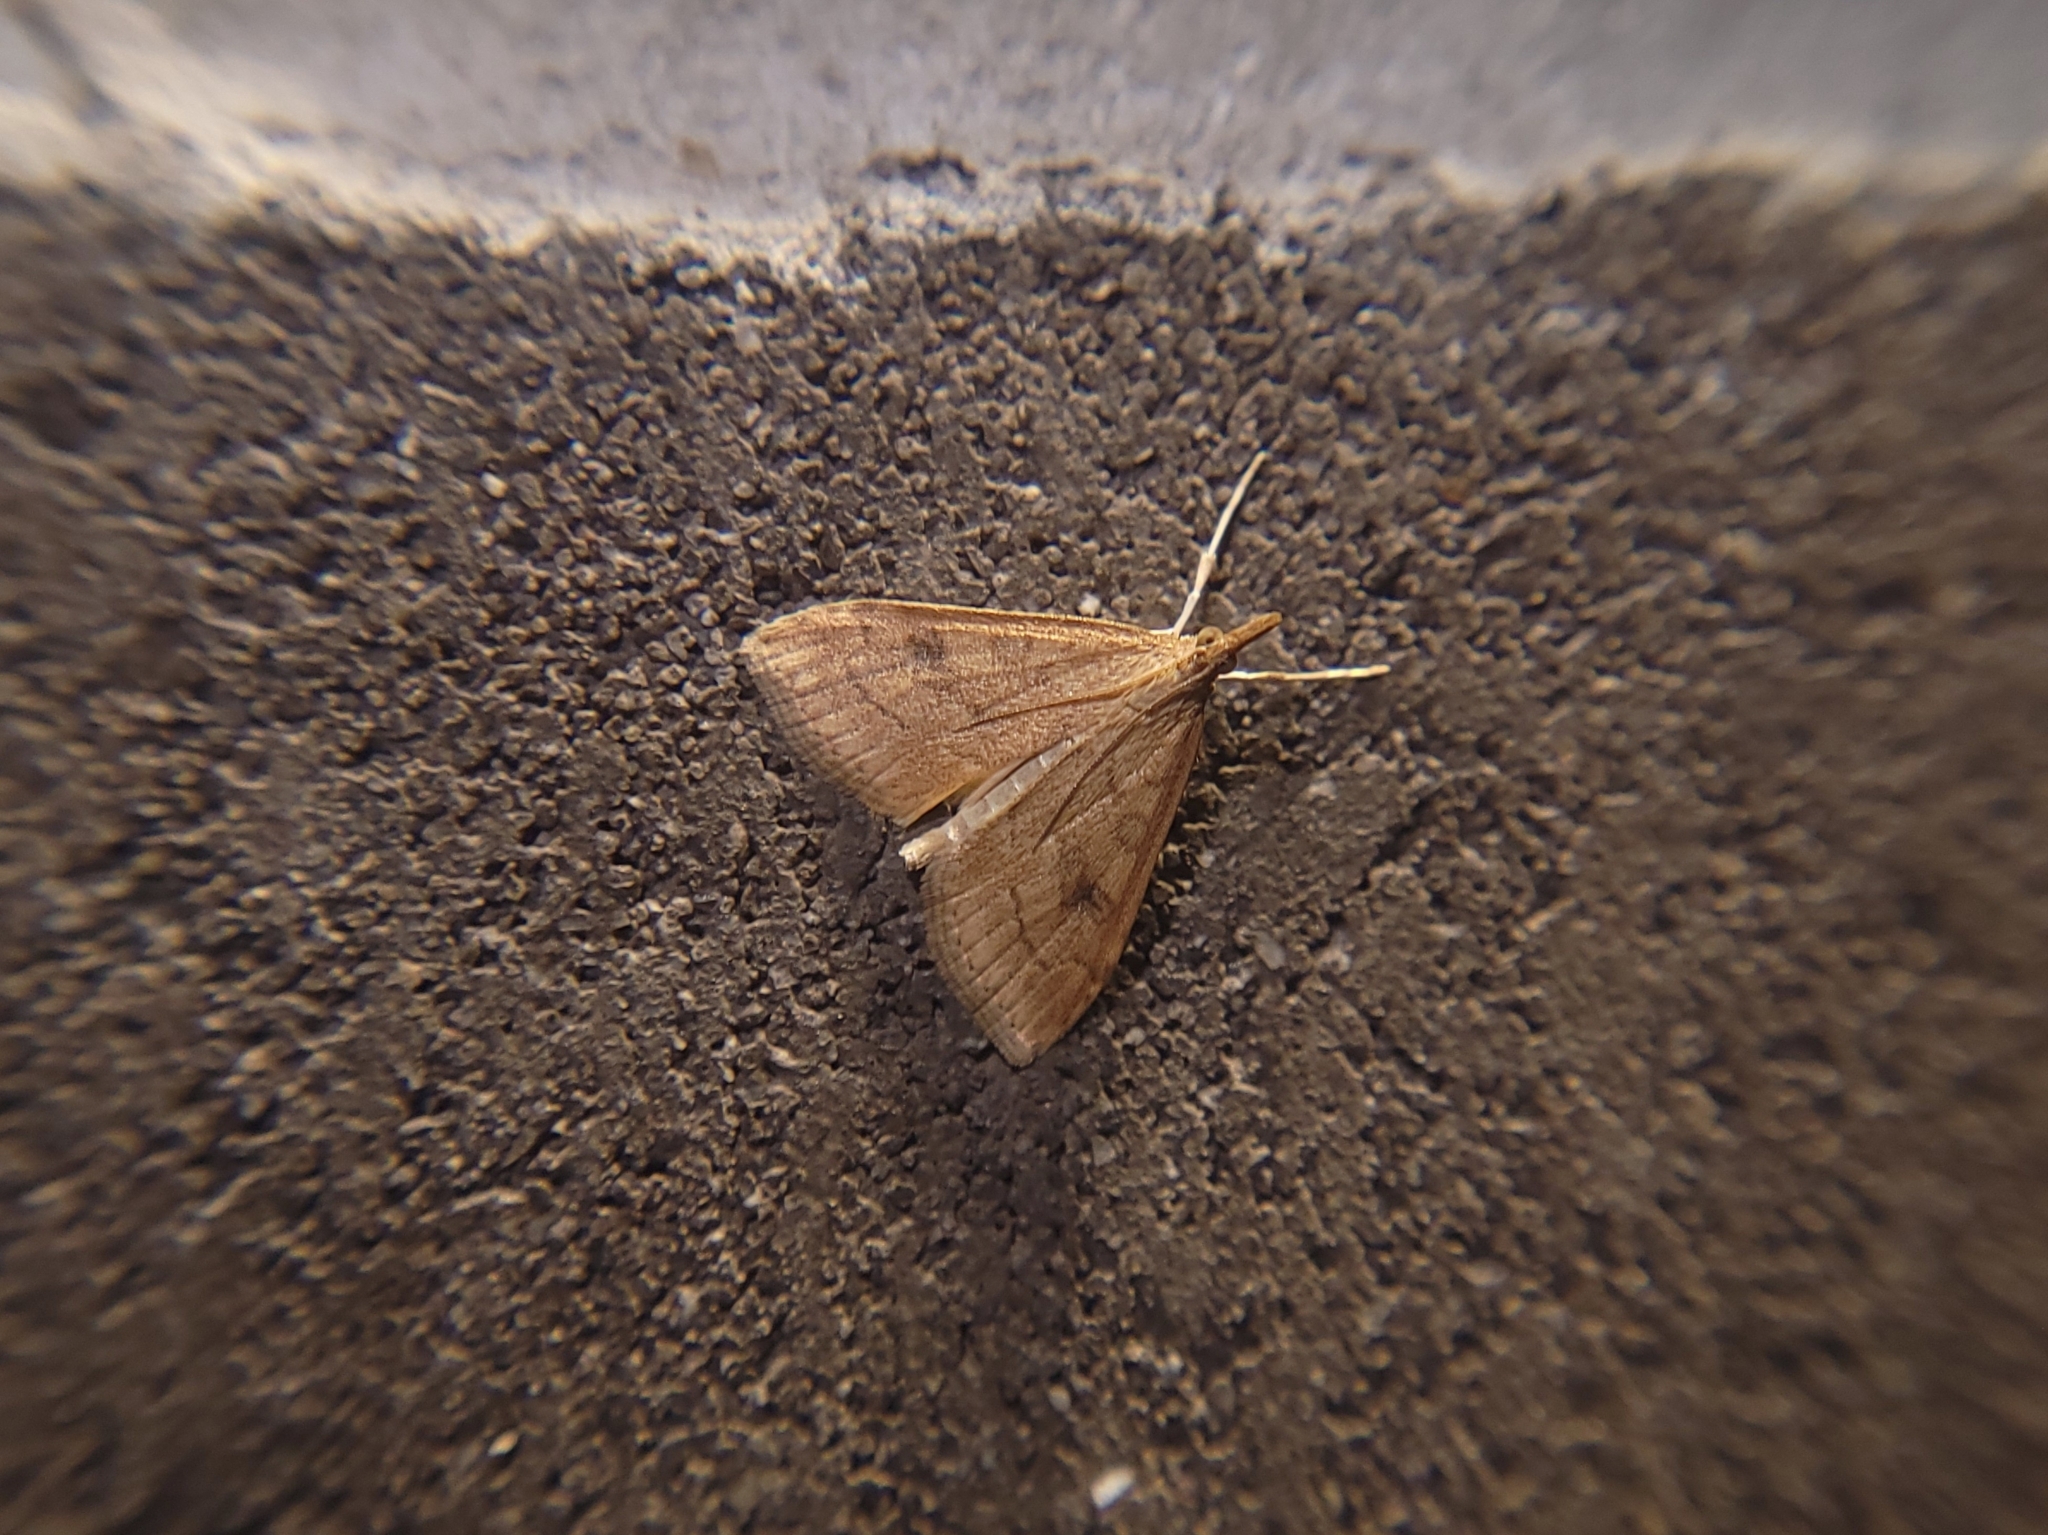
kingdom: Animalia
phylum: Arthropoda
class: Insecta
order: Lepidoptera
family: Crambidae
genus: Udea
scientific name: Udea rubigalis
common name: Celery leaftier moth
